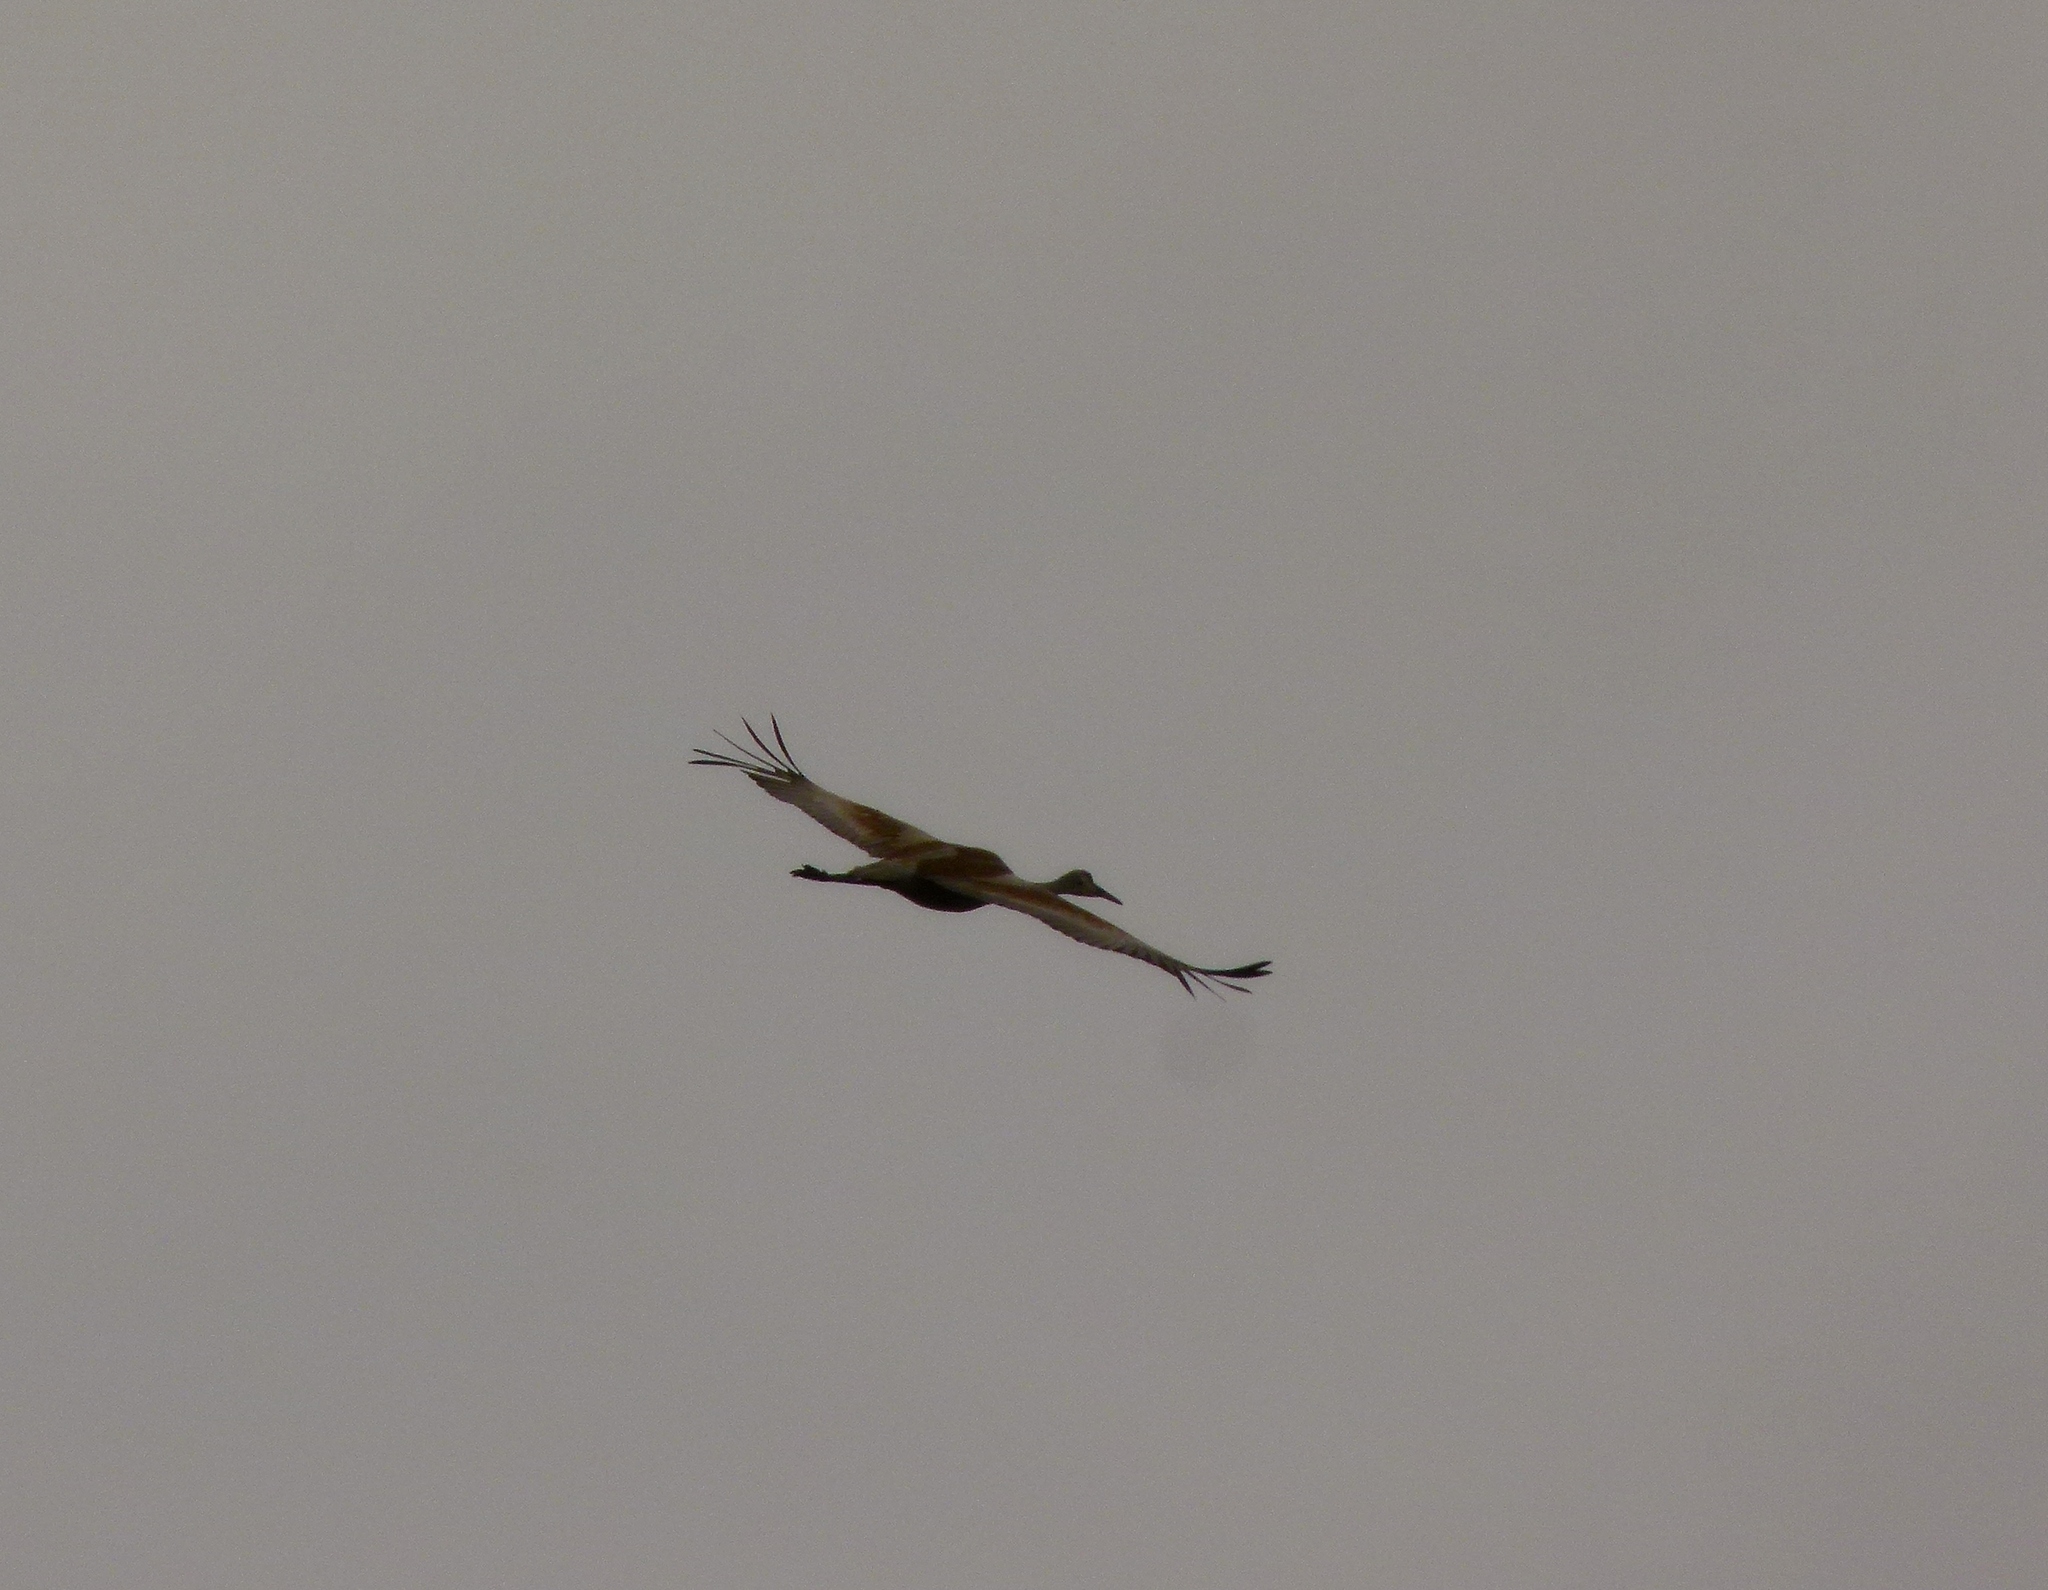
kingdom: Animalia
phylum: Chordata
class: Aves
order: Gruiformes
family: Gruidae
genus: Grus
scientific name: Grus canadensis
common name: Sandhill crane
